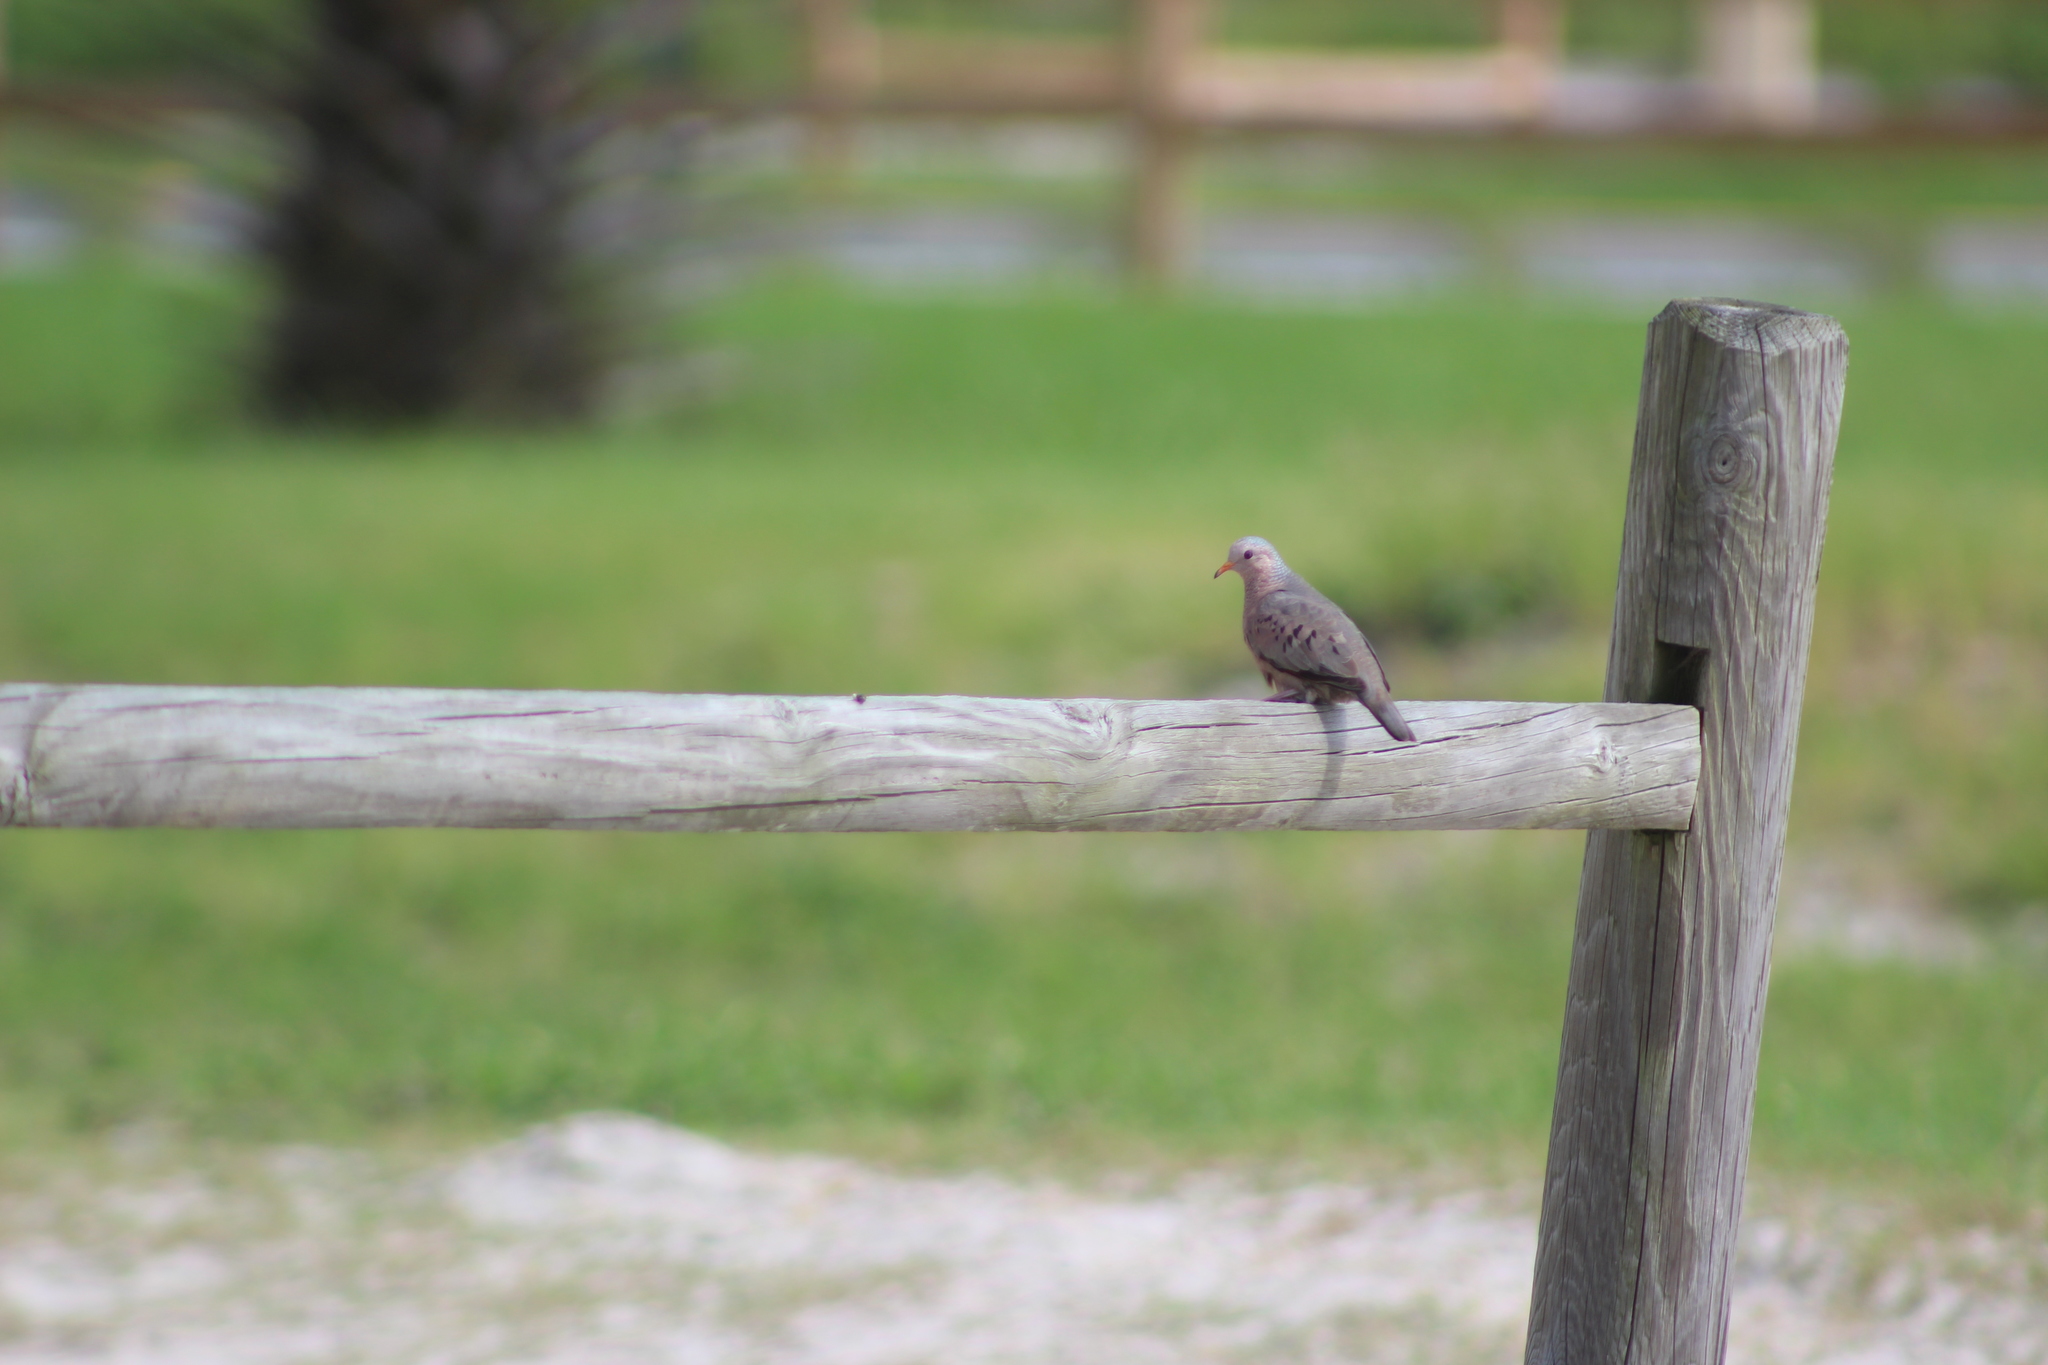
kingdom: Animalia
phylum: Chordata
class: Aves
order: Columbiformes
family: Columbidae
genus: Columbina
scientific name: Columbina passerina
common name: Common ground-dove
